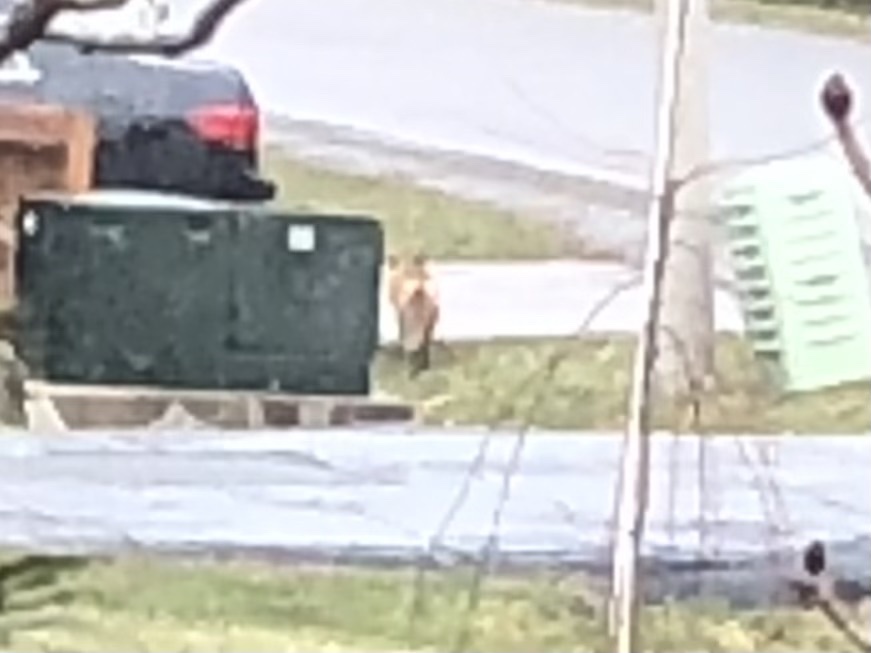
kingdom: Animalia
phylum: Chordata
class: Mammalia
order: Carnivora
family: Canidae
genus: Vulpes
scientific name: Vulpes vulpes
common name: Red fox
